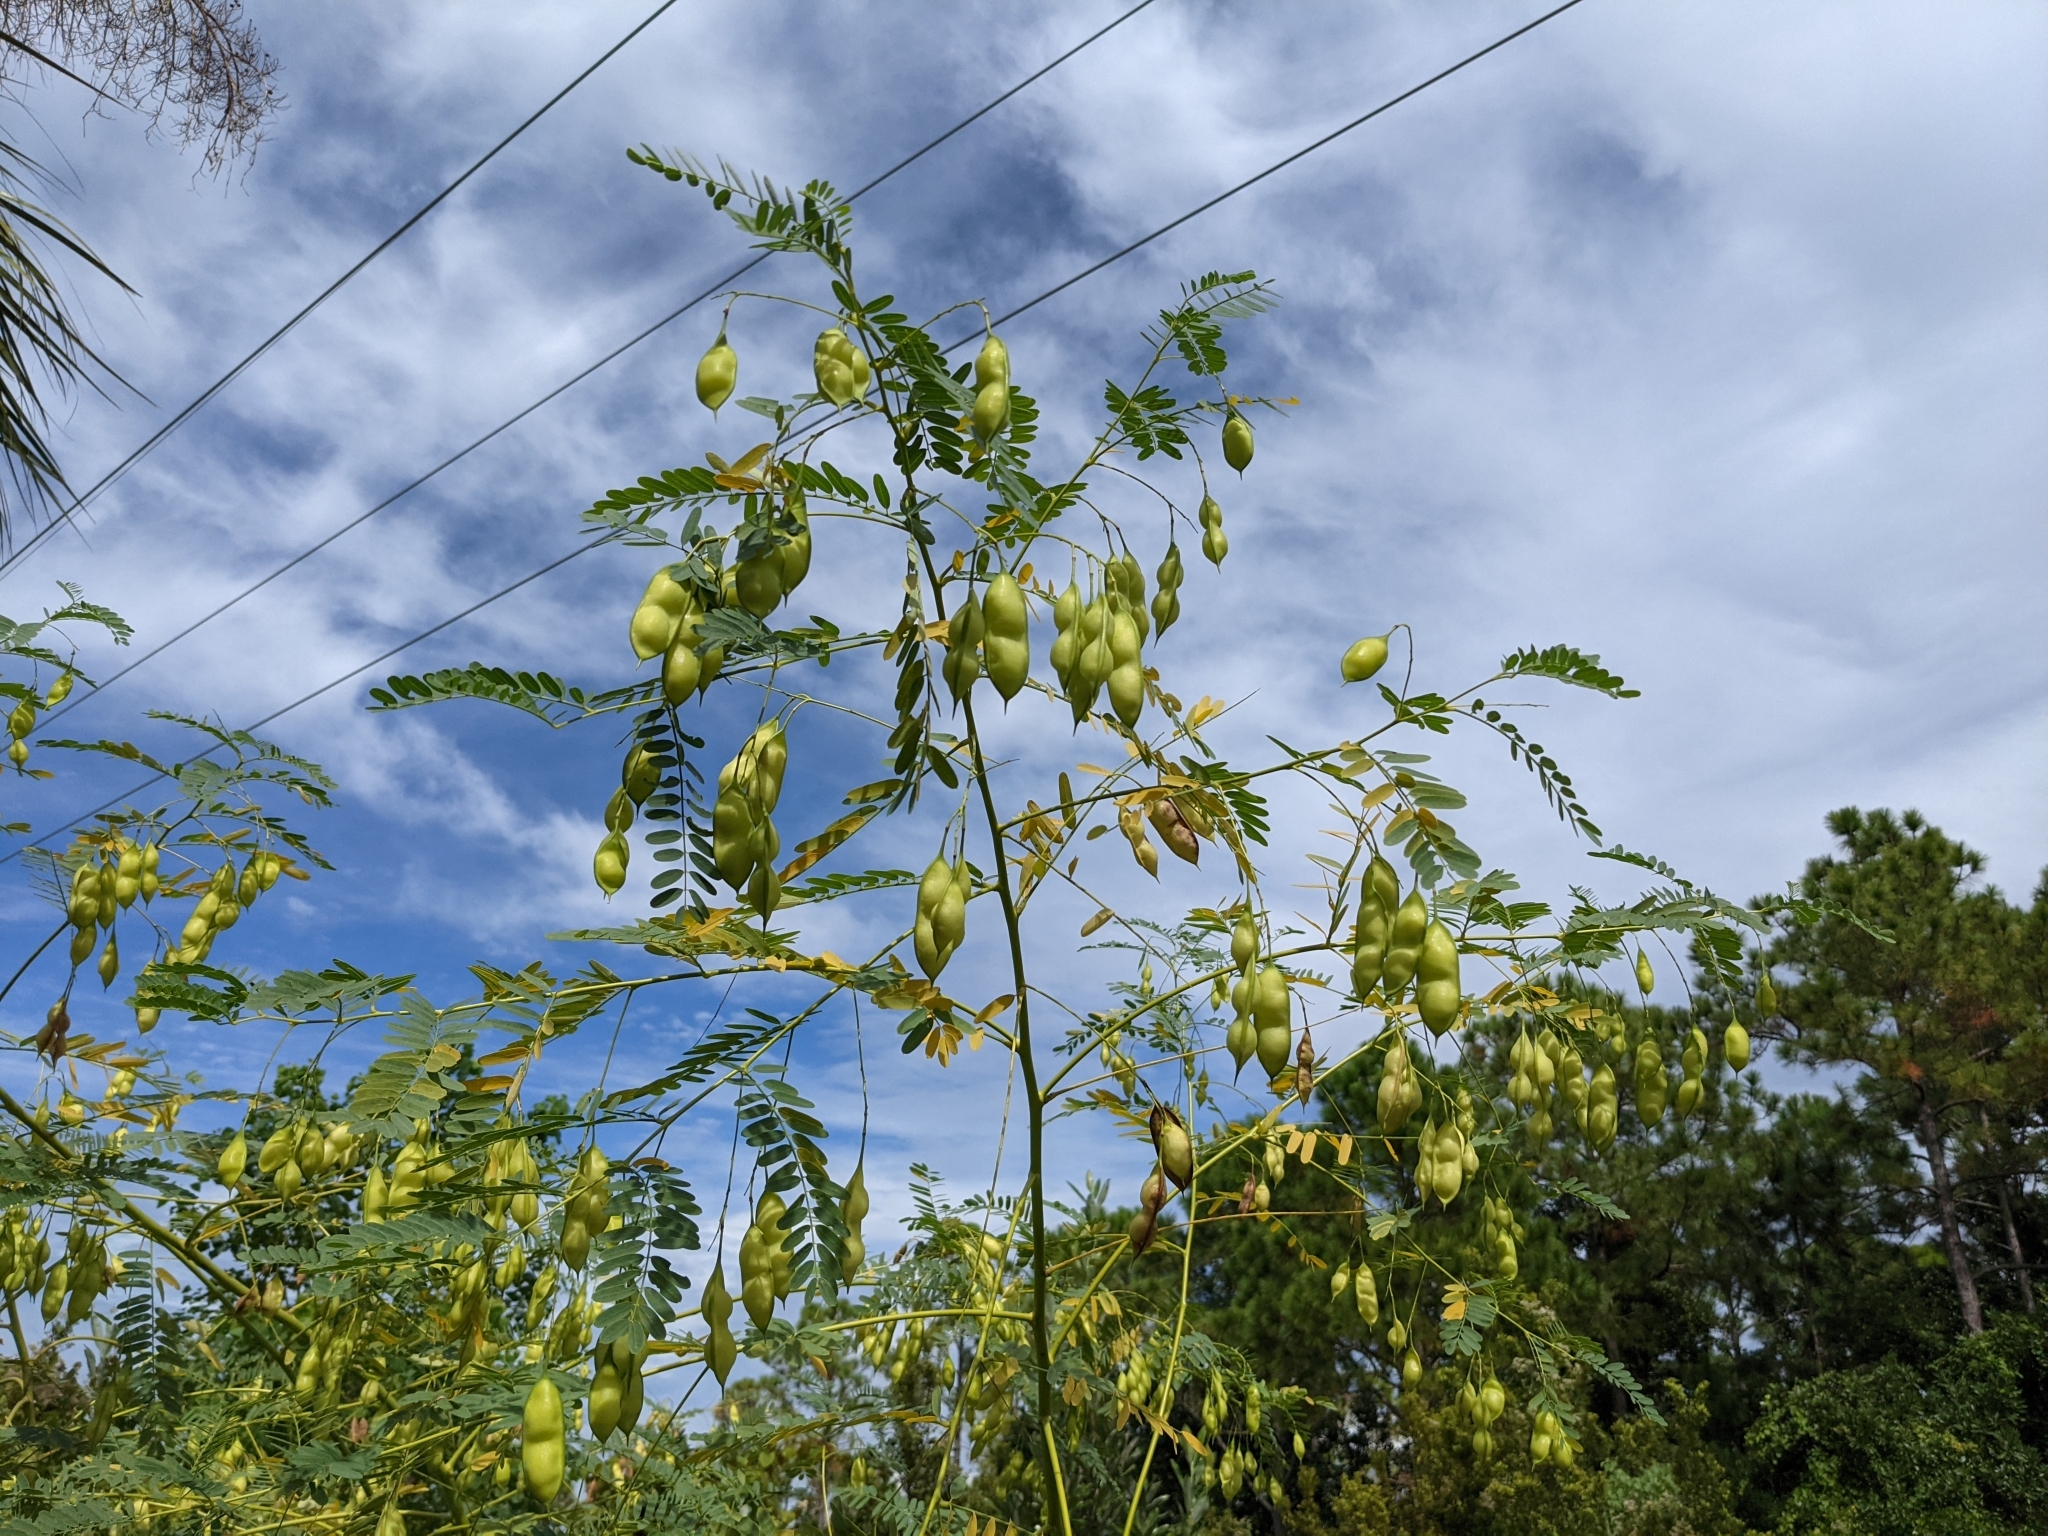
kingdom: Plantae
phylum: Tracheophyta
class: Magnoliopsida
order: Fabales
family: Fabaceae
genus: Sesbania
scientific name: Sesbania vesicaria
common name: Bagpod
